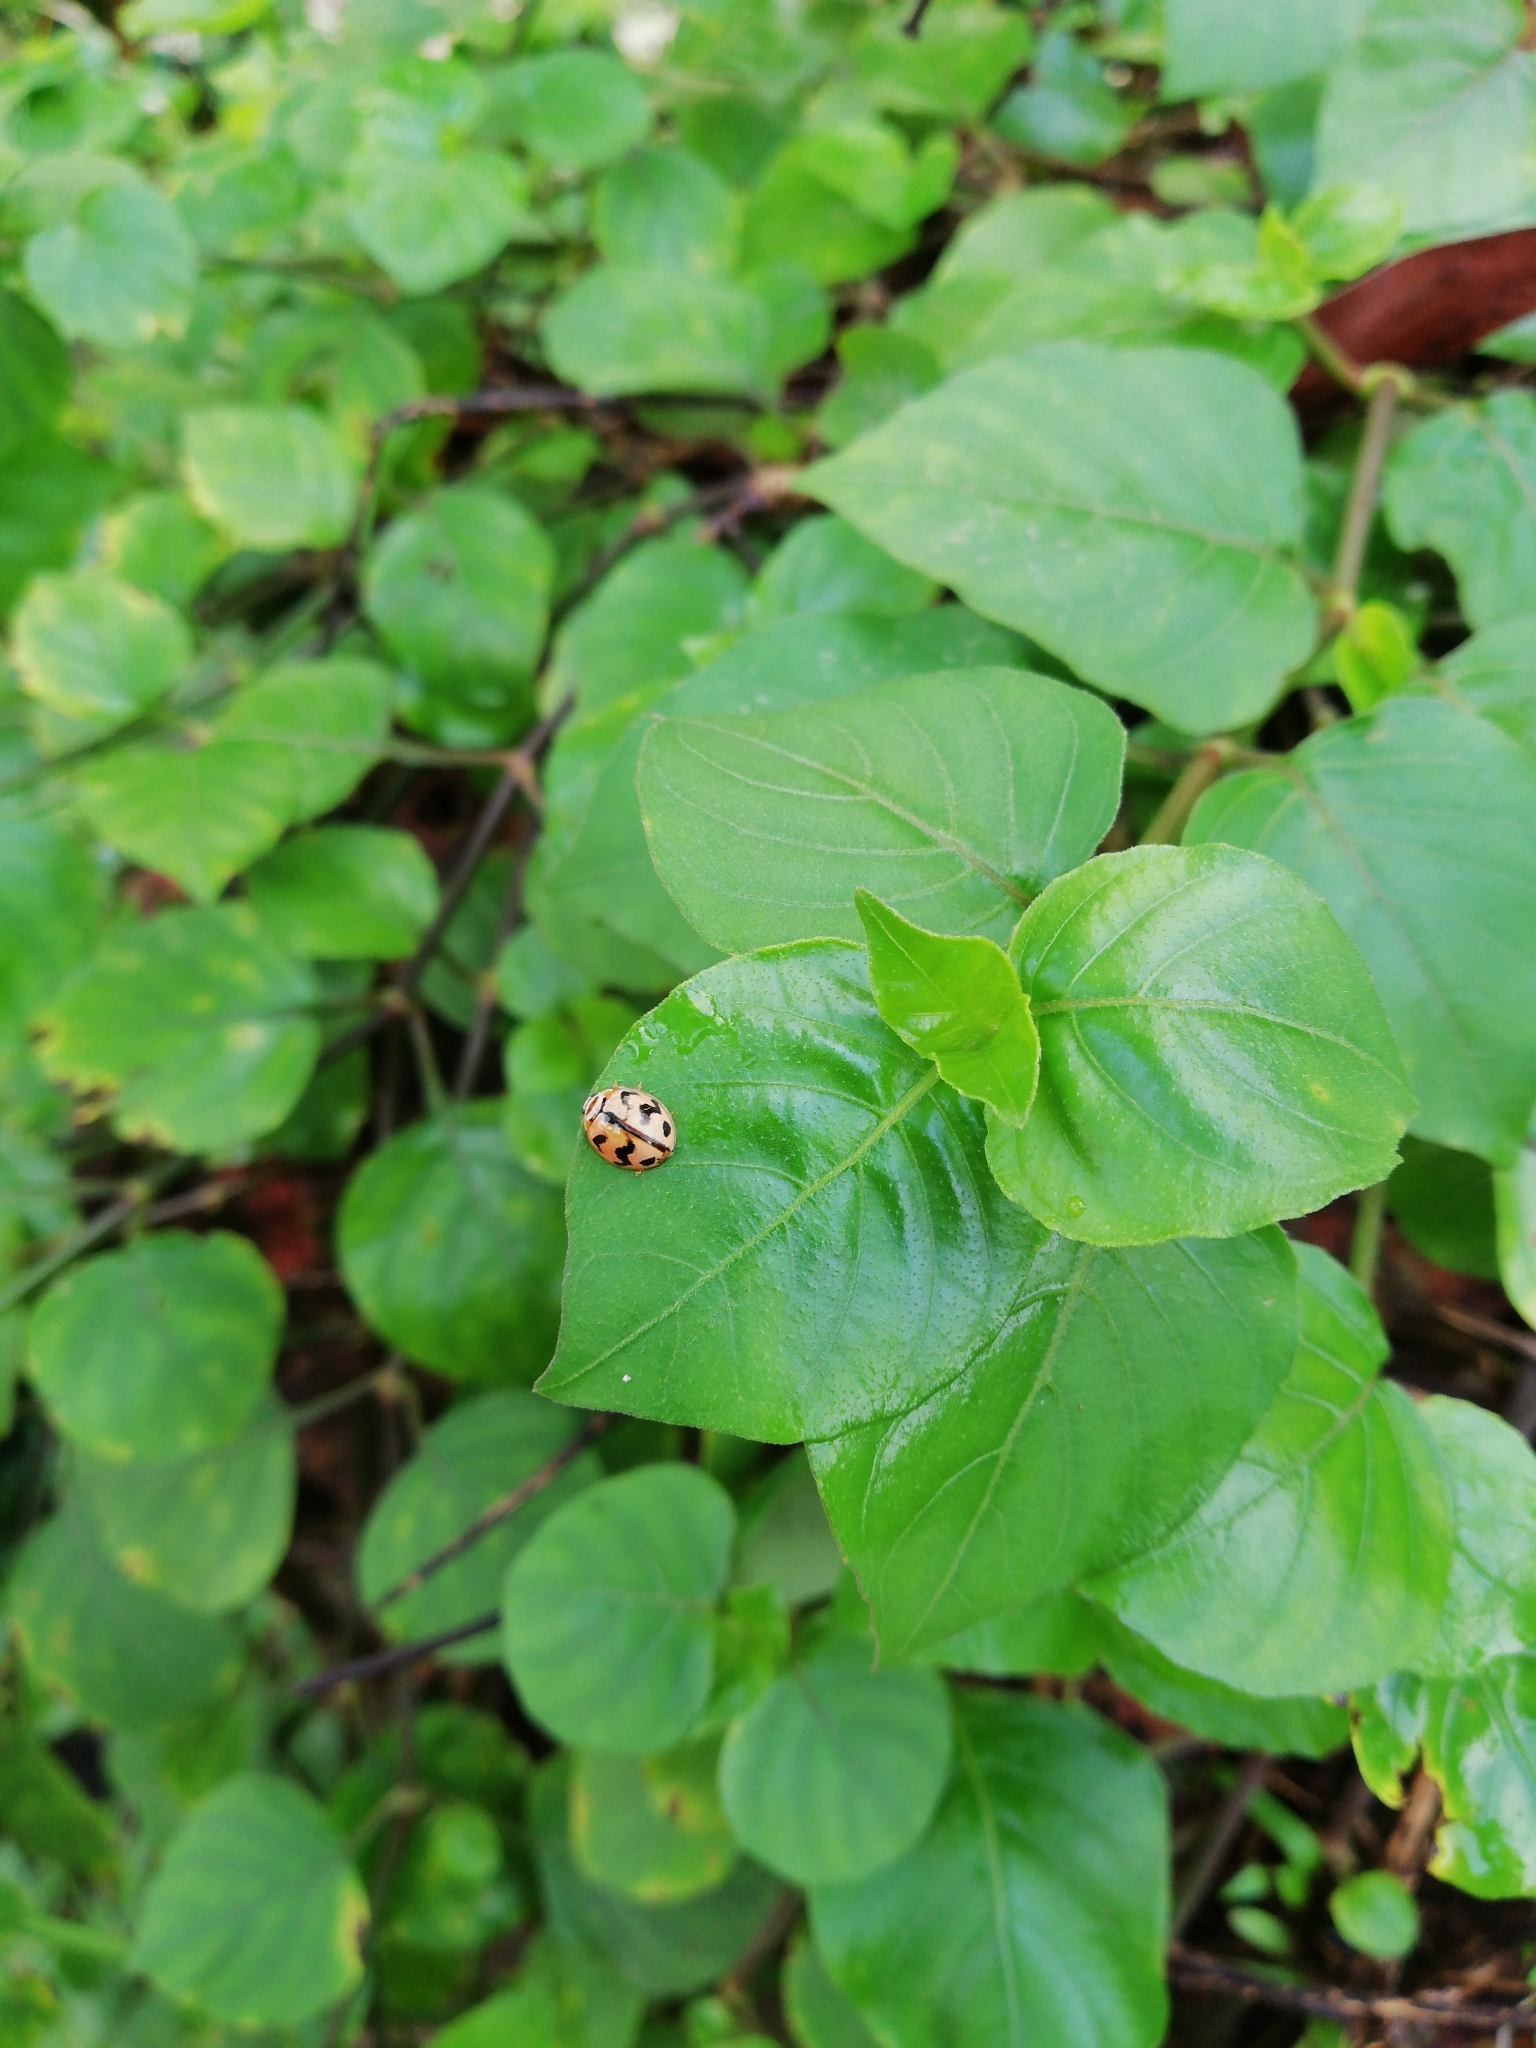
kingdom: Animalia
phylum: Arthropoda
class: Insecta
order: Coleoptera
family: Coccinellidae
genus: Cheilomenes
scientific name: Cheilomenes sexmaculata
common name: Ladybird beetle
